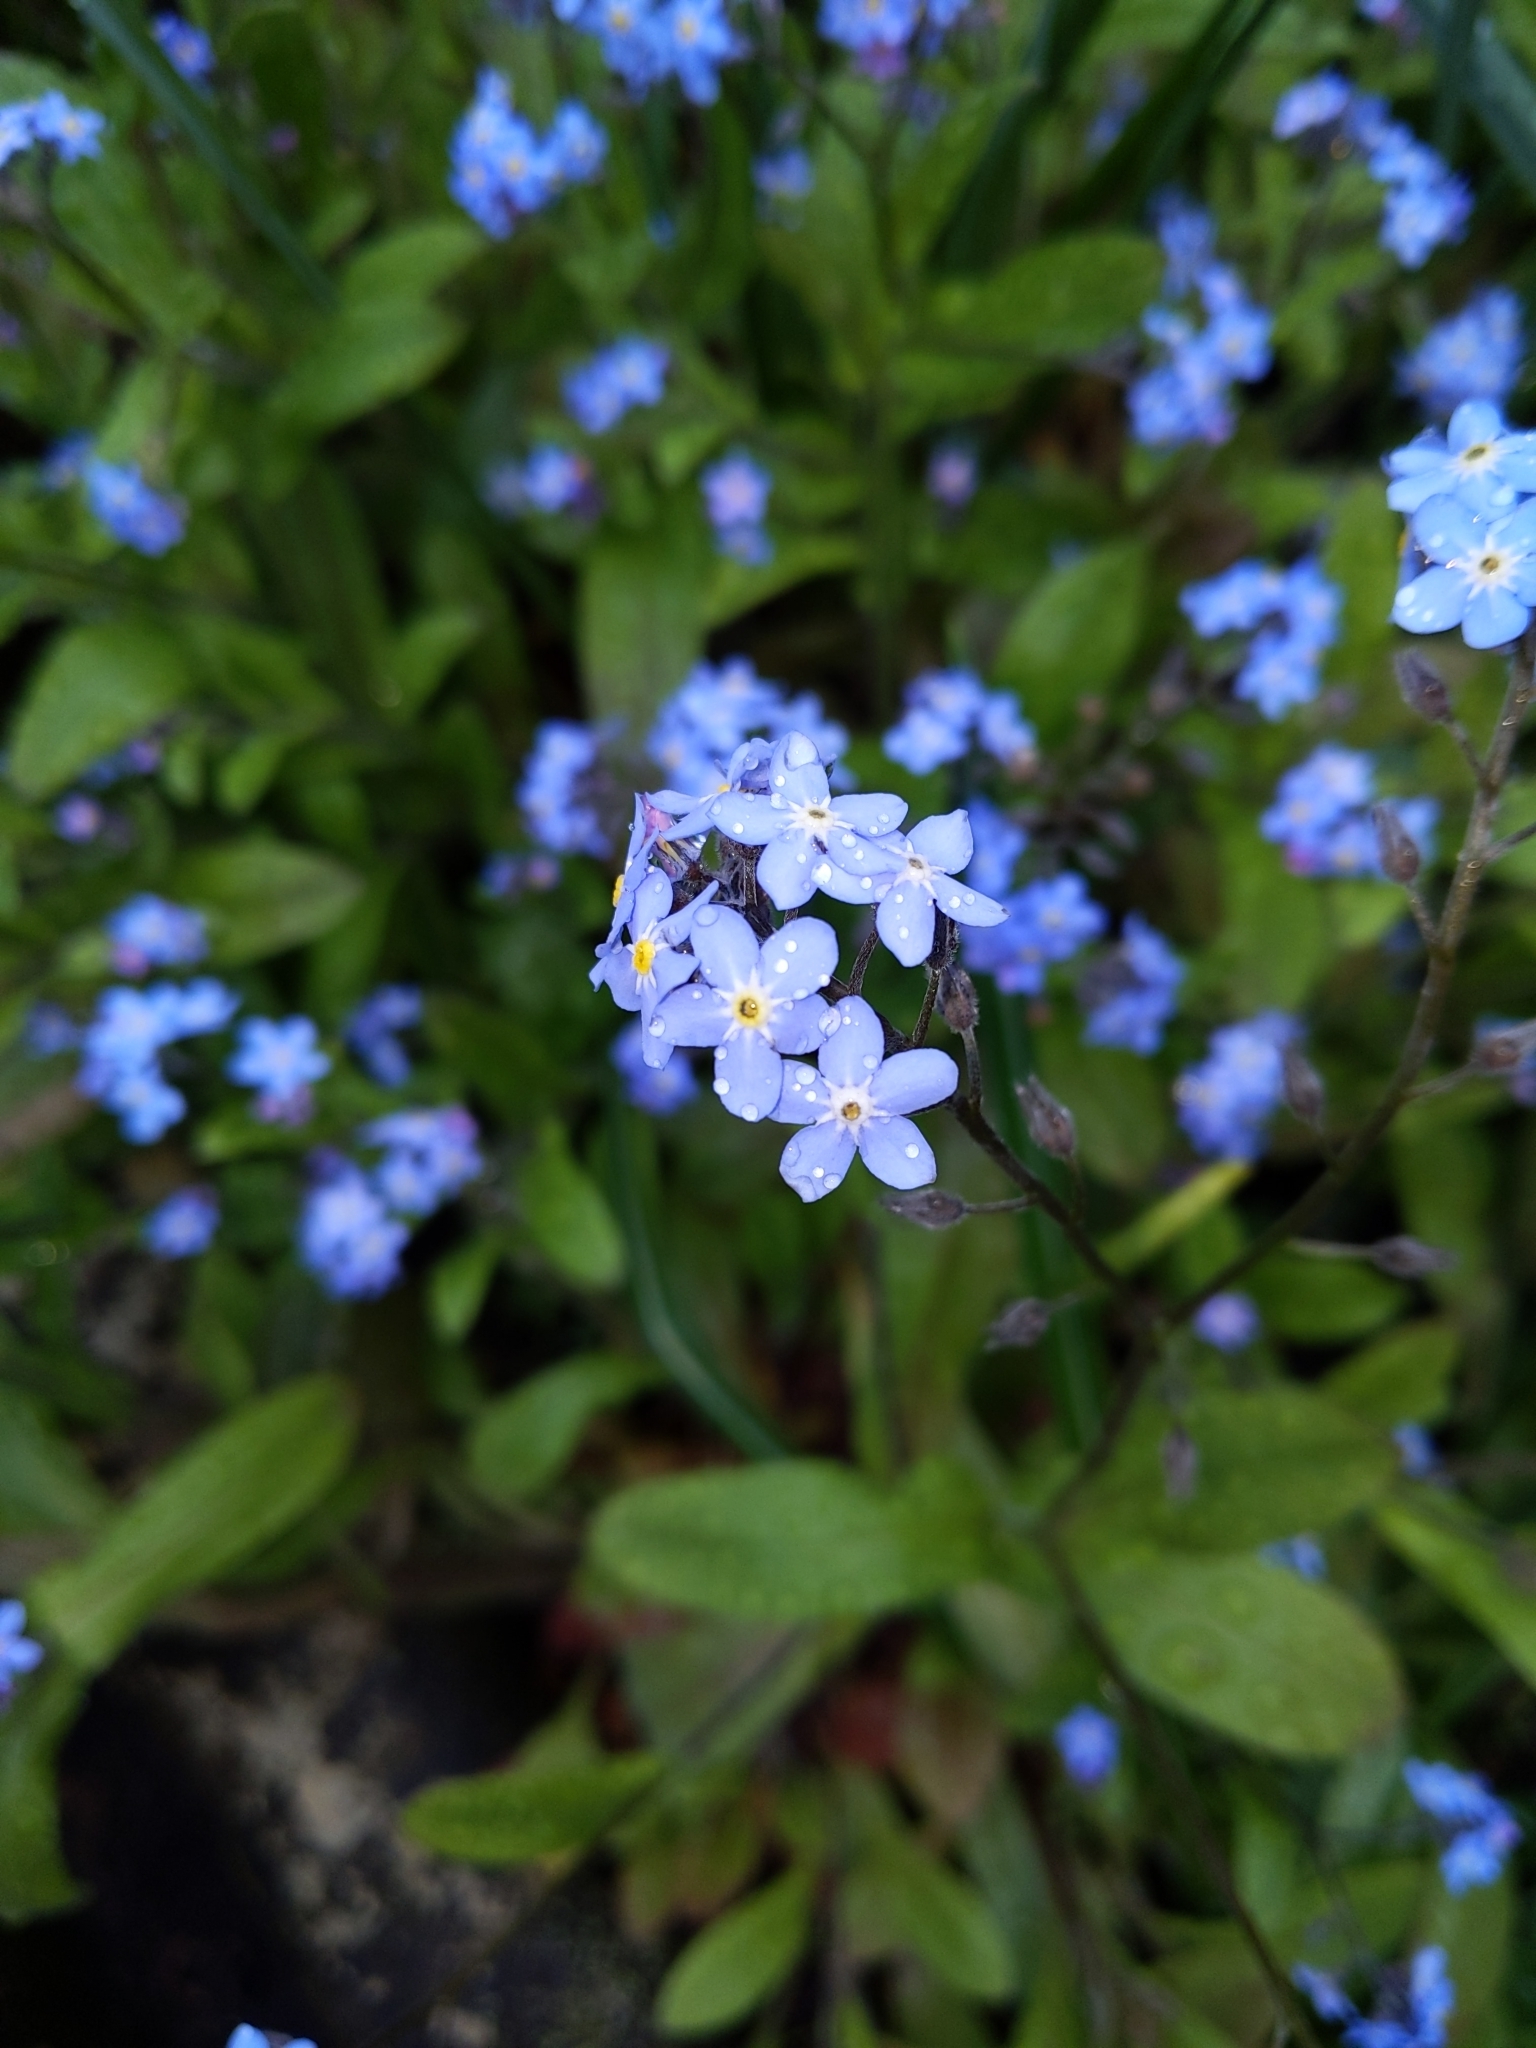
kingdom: Plantae
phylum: Tracheophyta
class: Magnoliopsida
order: Boraginales
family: Boraginaceae
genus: Myosotis
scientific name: Myosotis sylvatica
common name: Wood forget-me-not
